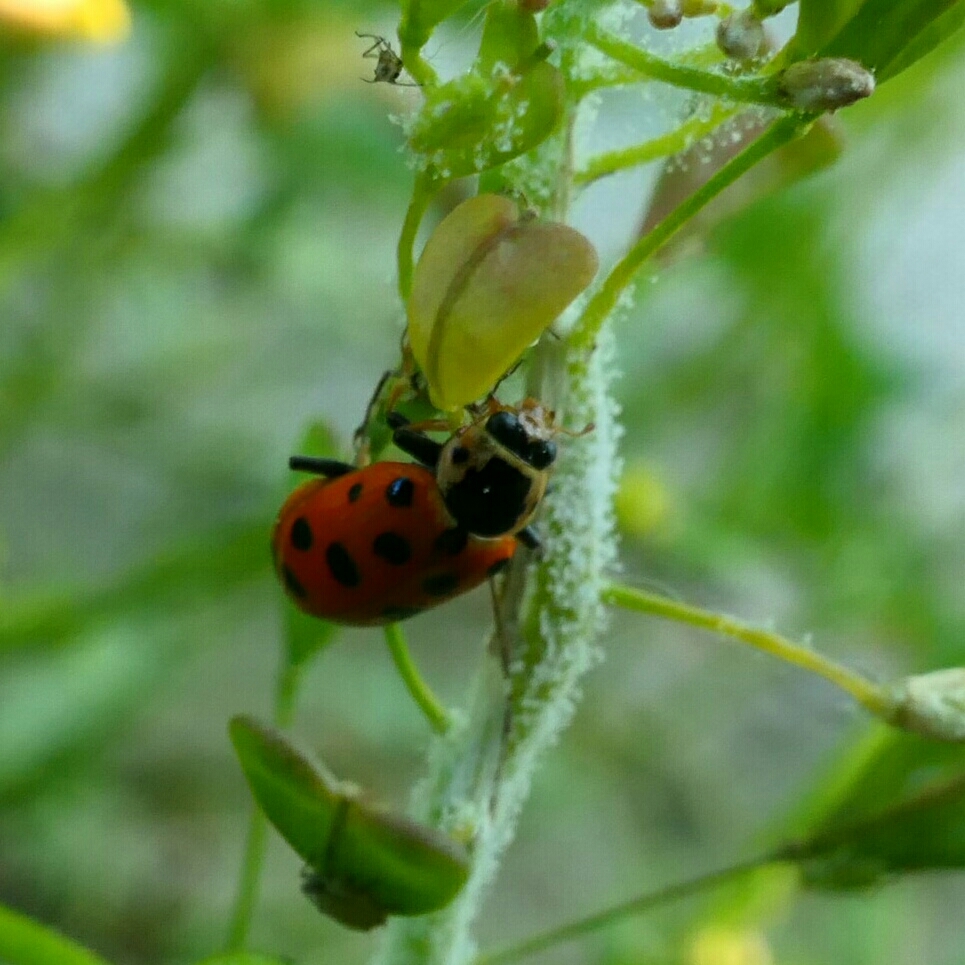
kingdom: Animalia
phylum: Arthropoda
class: Insecta
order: Coleoptera
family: Coccinellidae
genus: Hippodamia
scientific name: Hippodamia tredecimpunctata
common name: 13-spot ladybird
